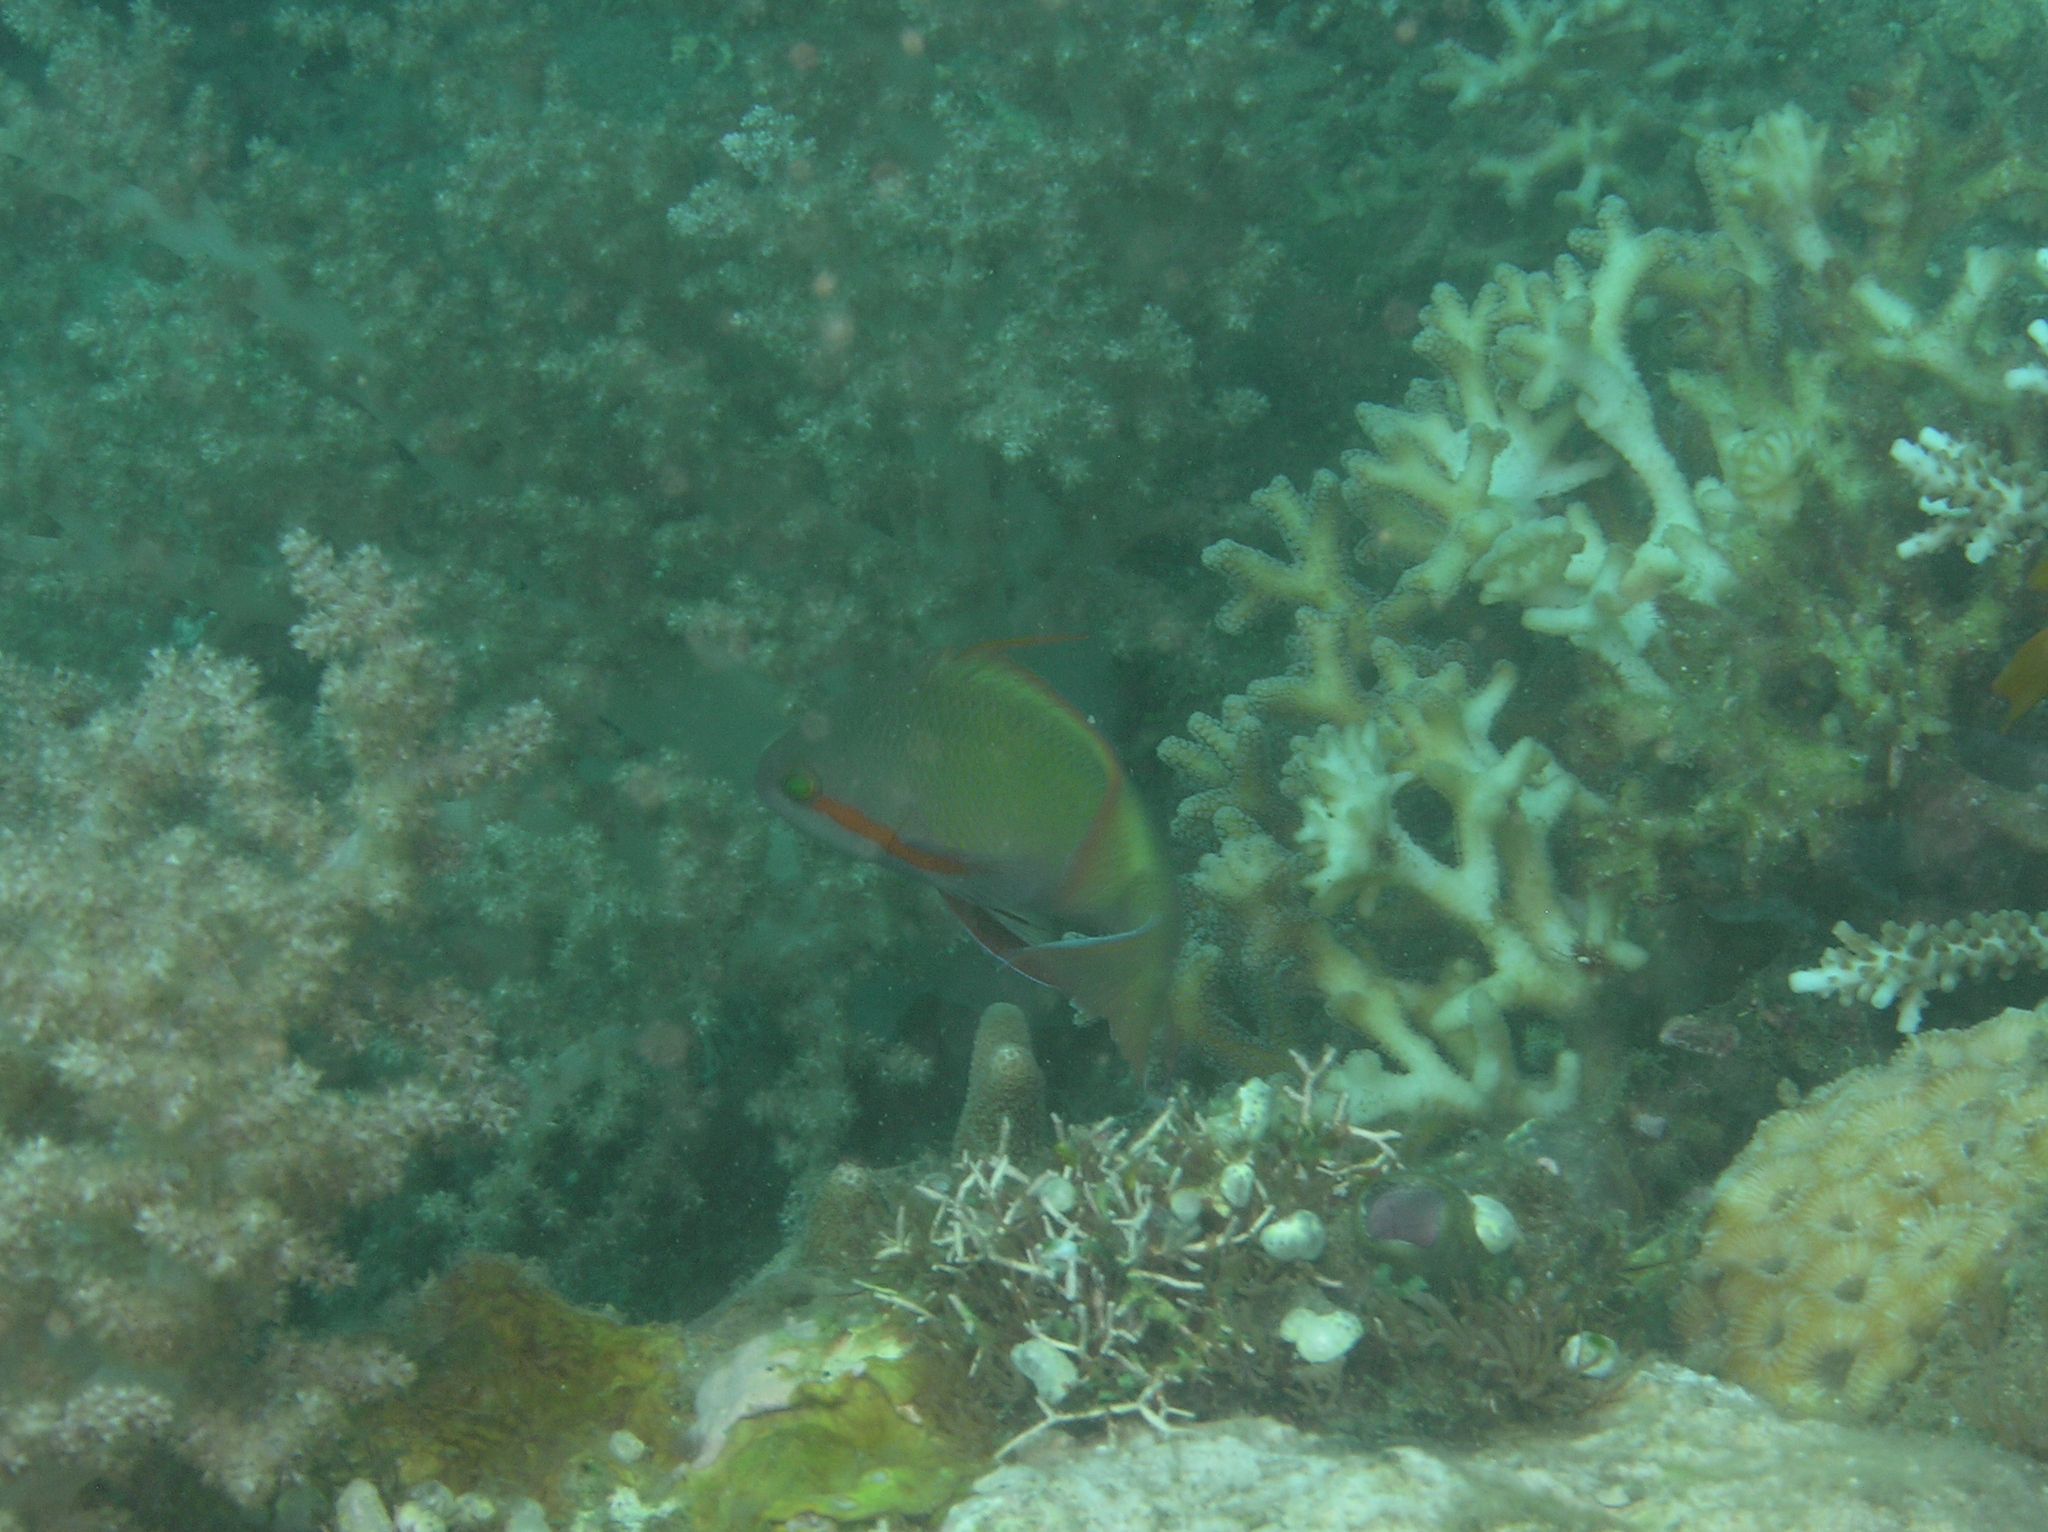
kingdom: Animalia
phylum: Chordata
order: Perciformes
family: Serranidae
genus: Pseudanthias
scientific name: Pseudanthias huchtii
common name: Pacific basslet
